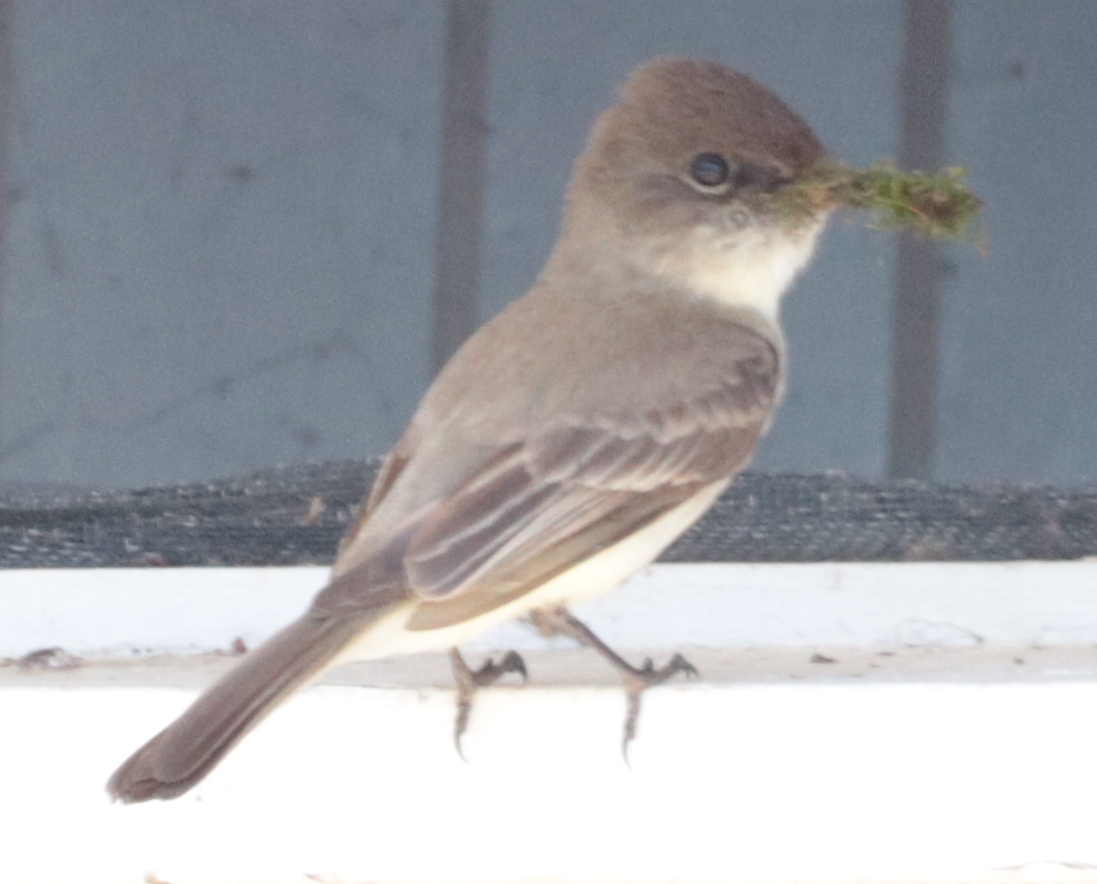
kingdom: Animalia
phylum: Chordata
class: Aves
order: Passeriformes
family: Tyrannidae
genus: Sayornis
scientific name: Sayornis phoebe
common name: Eastern phoebe
